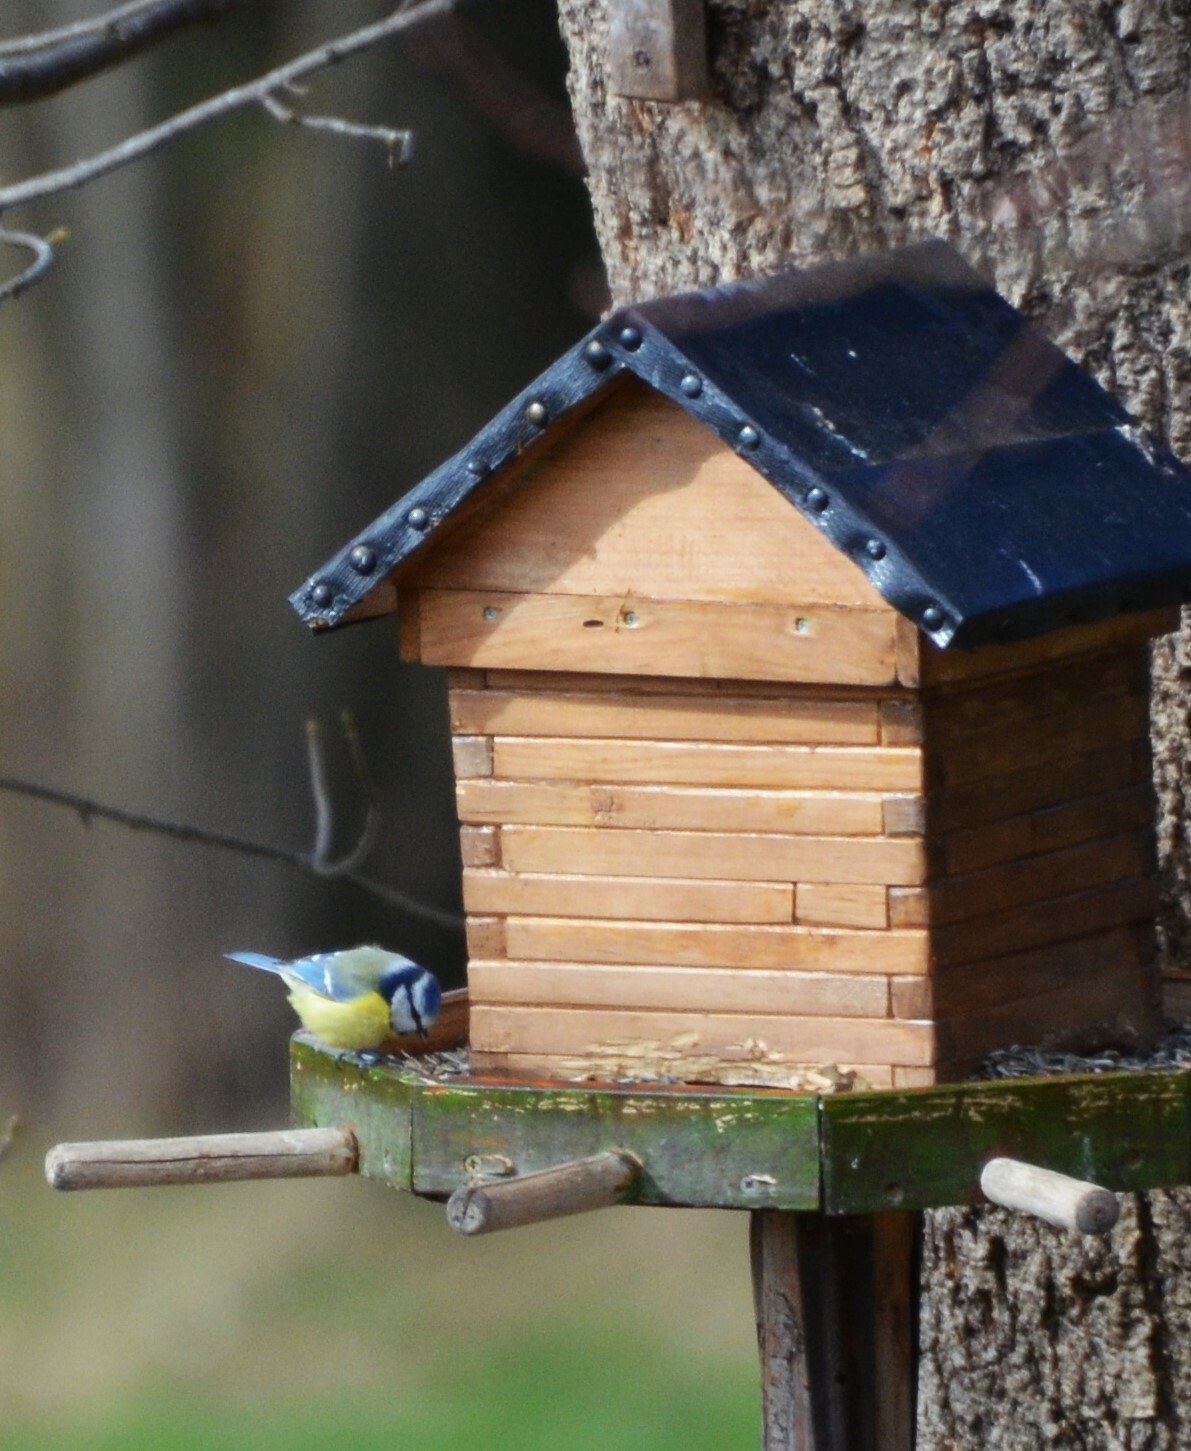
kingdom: Animalia
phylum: Chordata
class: Aves
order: Passeriformes
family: Paridae
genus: Cyanistes
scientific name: Cyanistes caeruleus
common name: Eurasian blue tit
